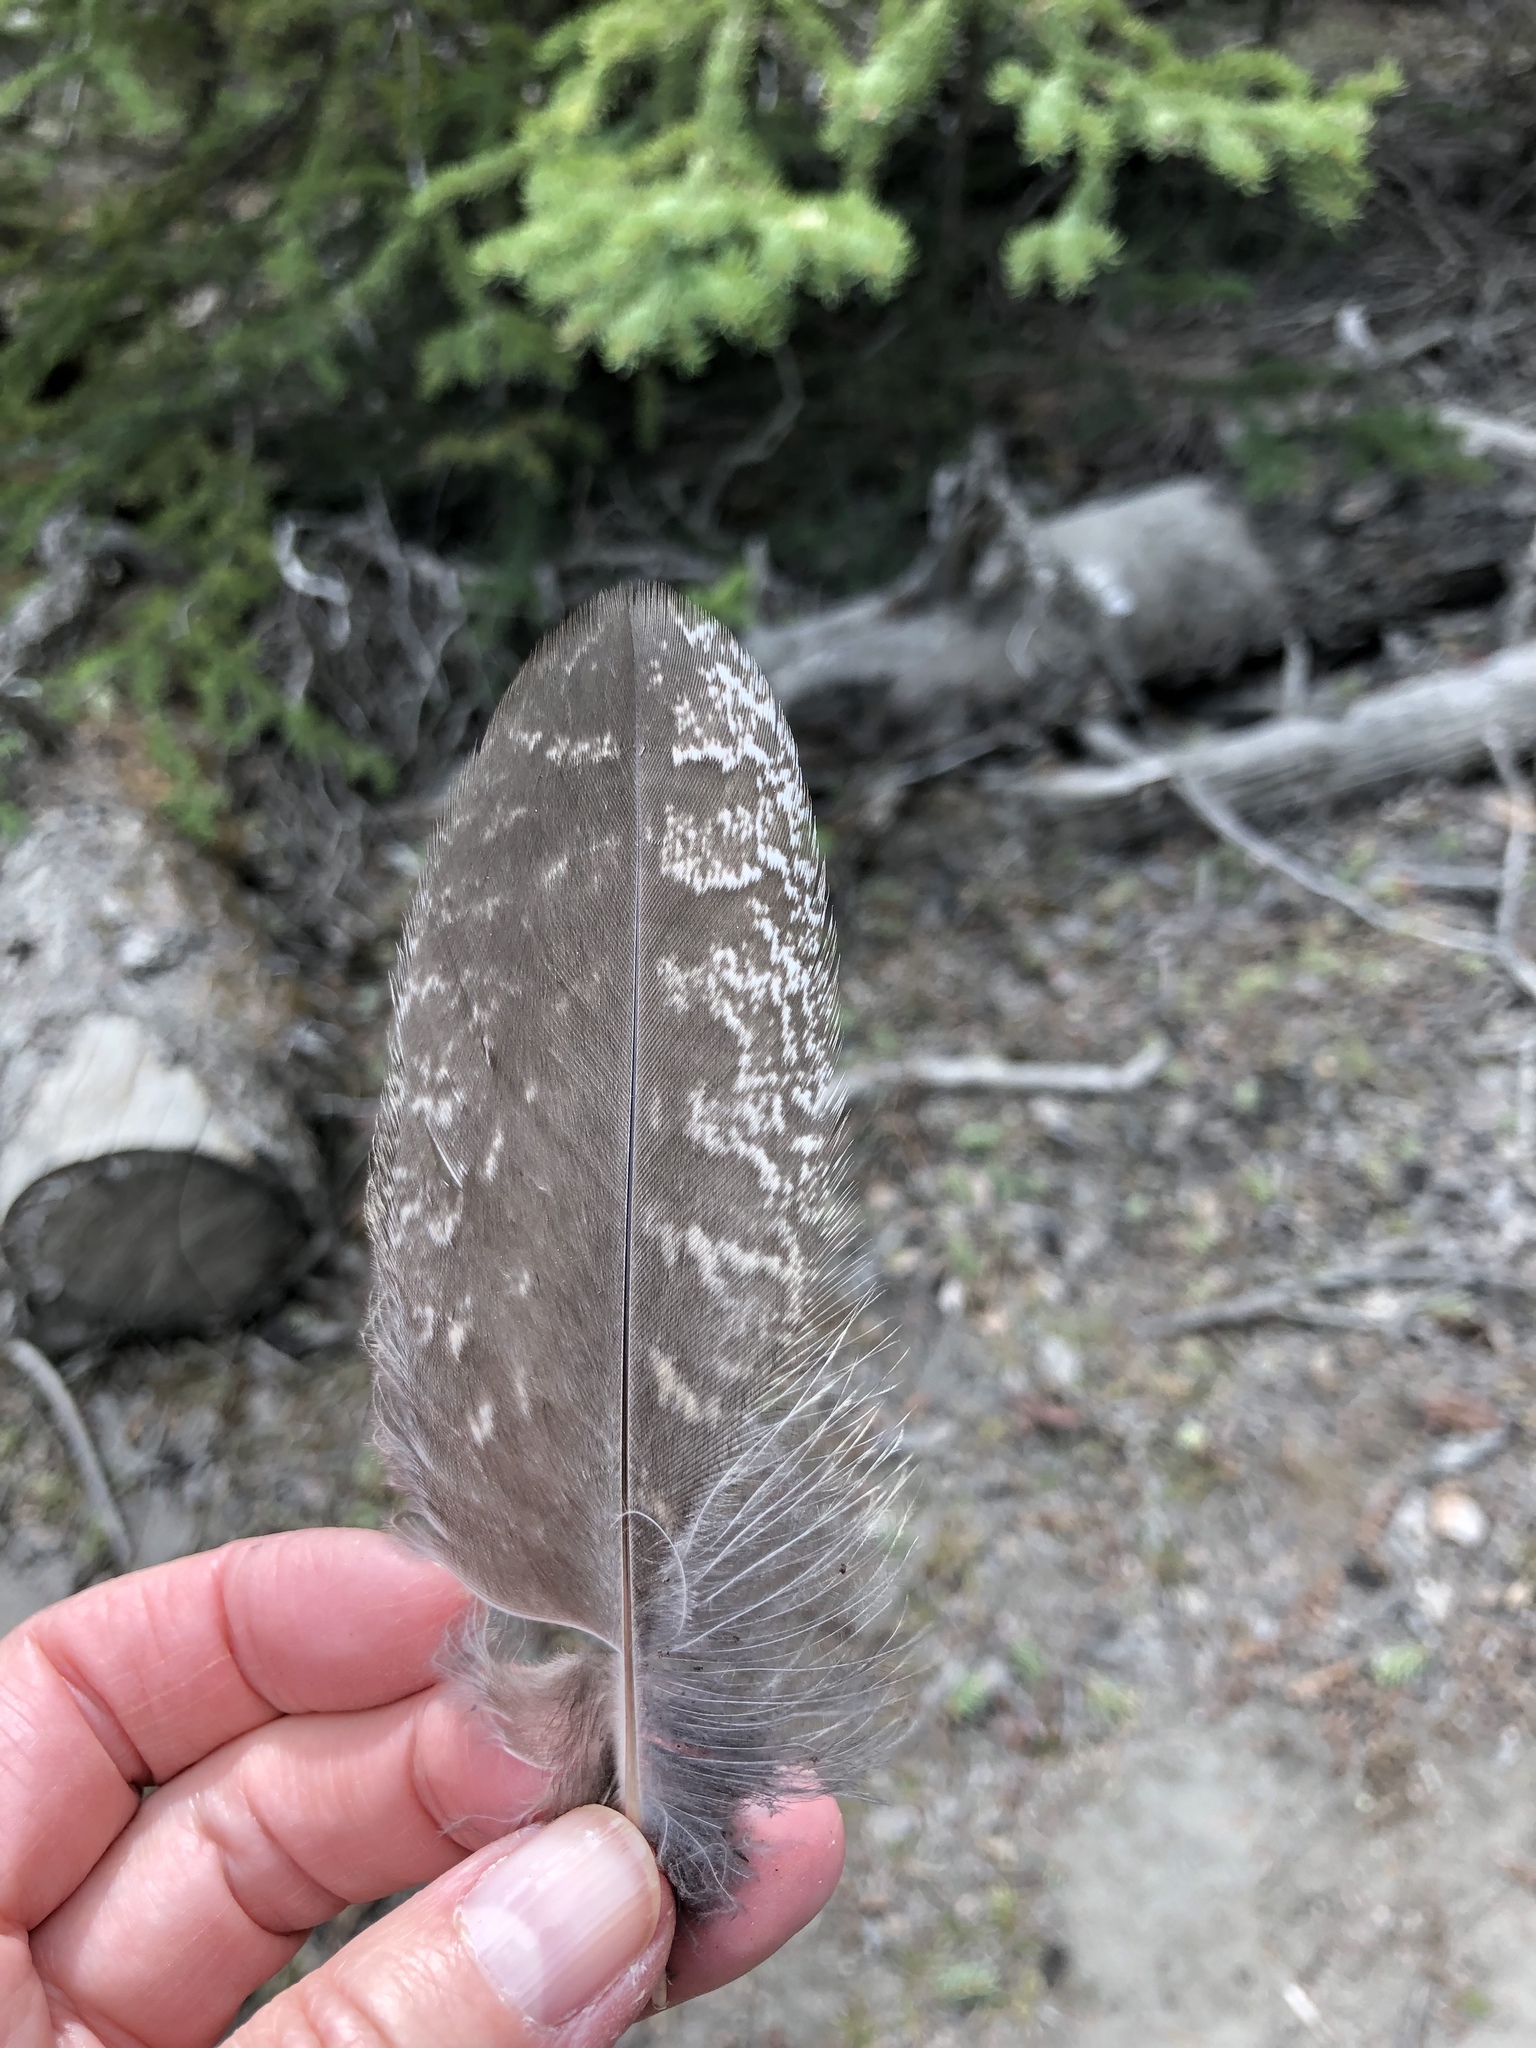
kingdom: Animalia
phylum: Chordata
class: Aves
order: Strigiformes
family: Strigidae
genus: Strix
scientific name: Strix nebulosa
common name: Great grey owl
